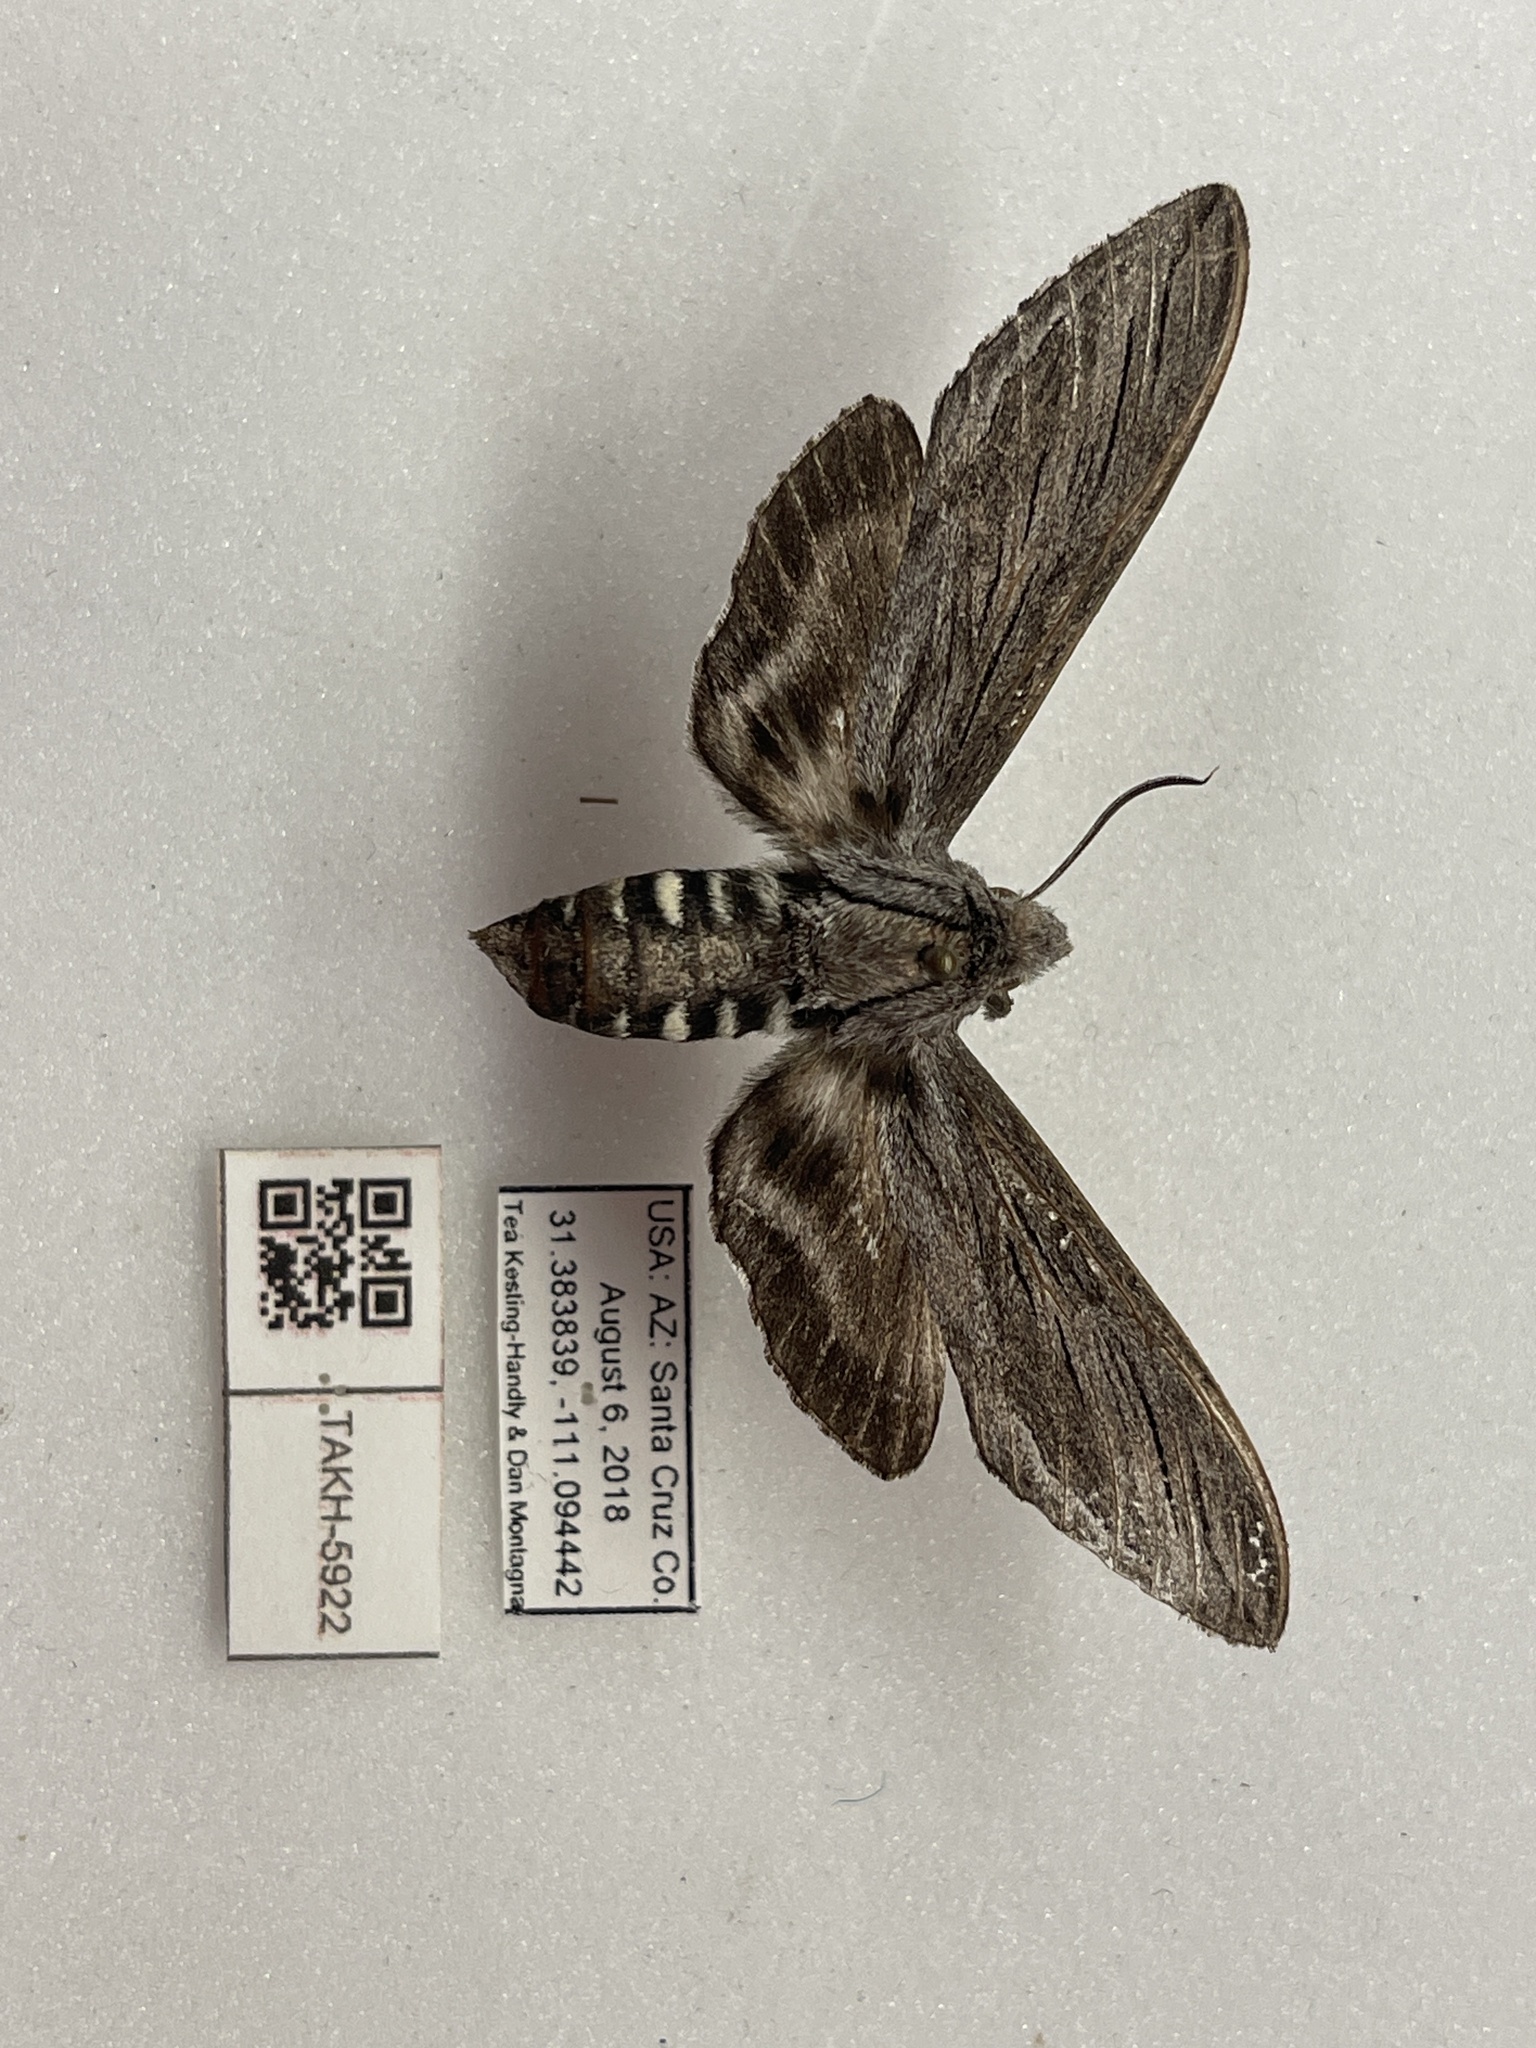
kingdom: Animalia
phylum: Arthropoda
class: Insecta
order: Lepidoptera
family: Sphingidae
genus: Sphinx
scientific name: Sphinx asellus
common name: Asella sphinx
